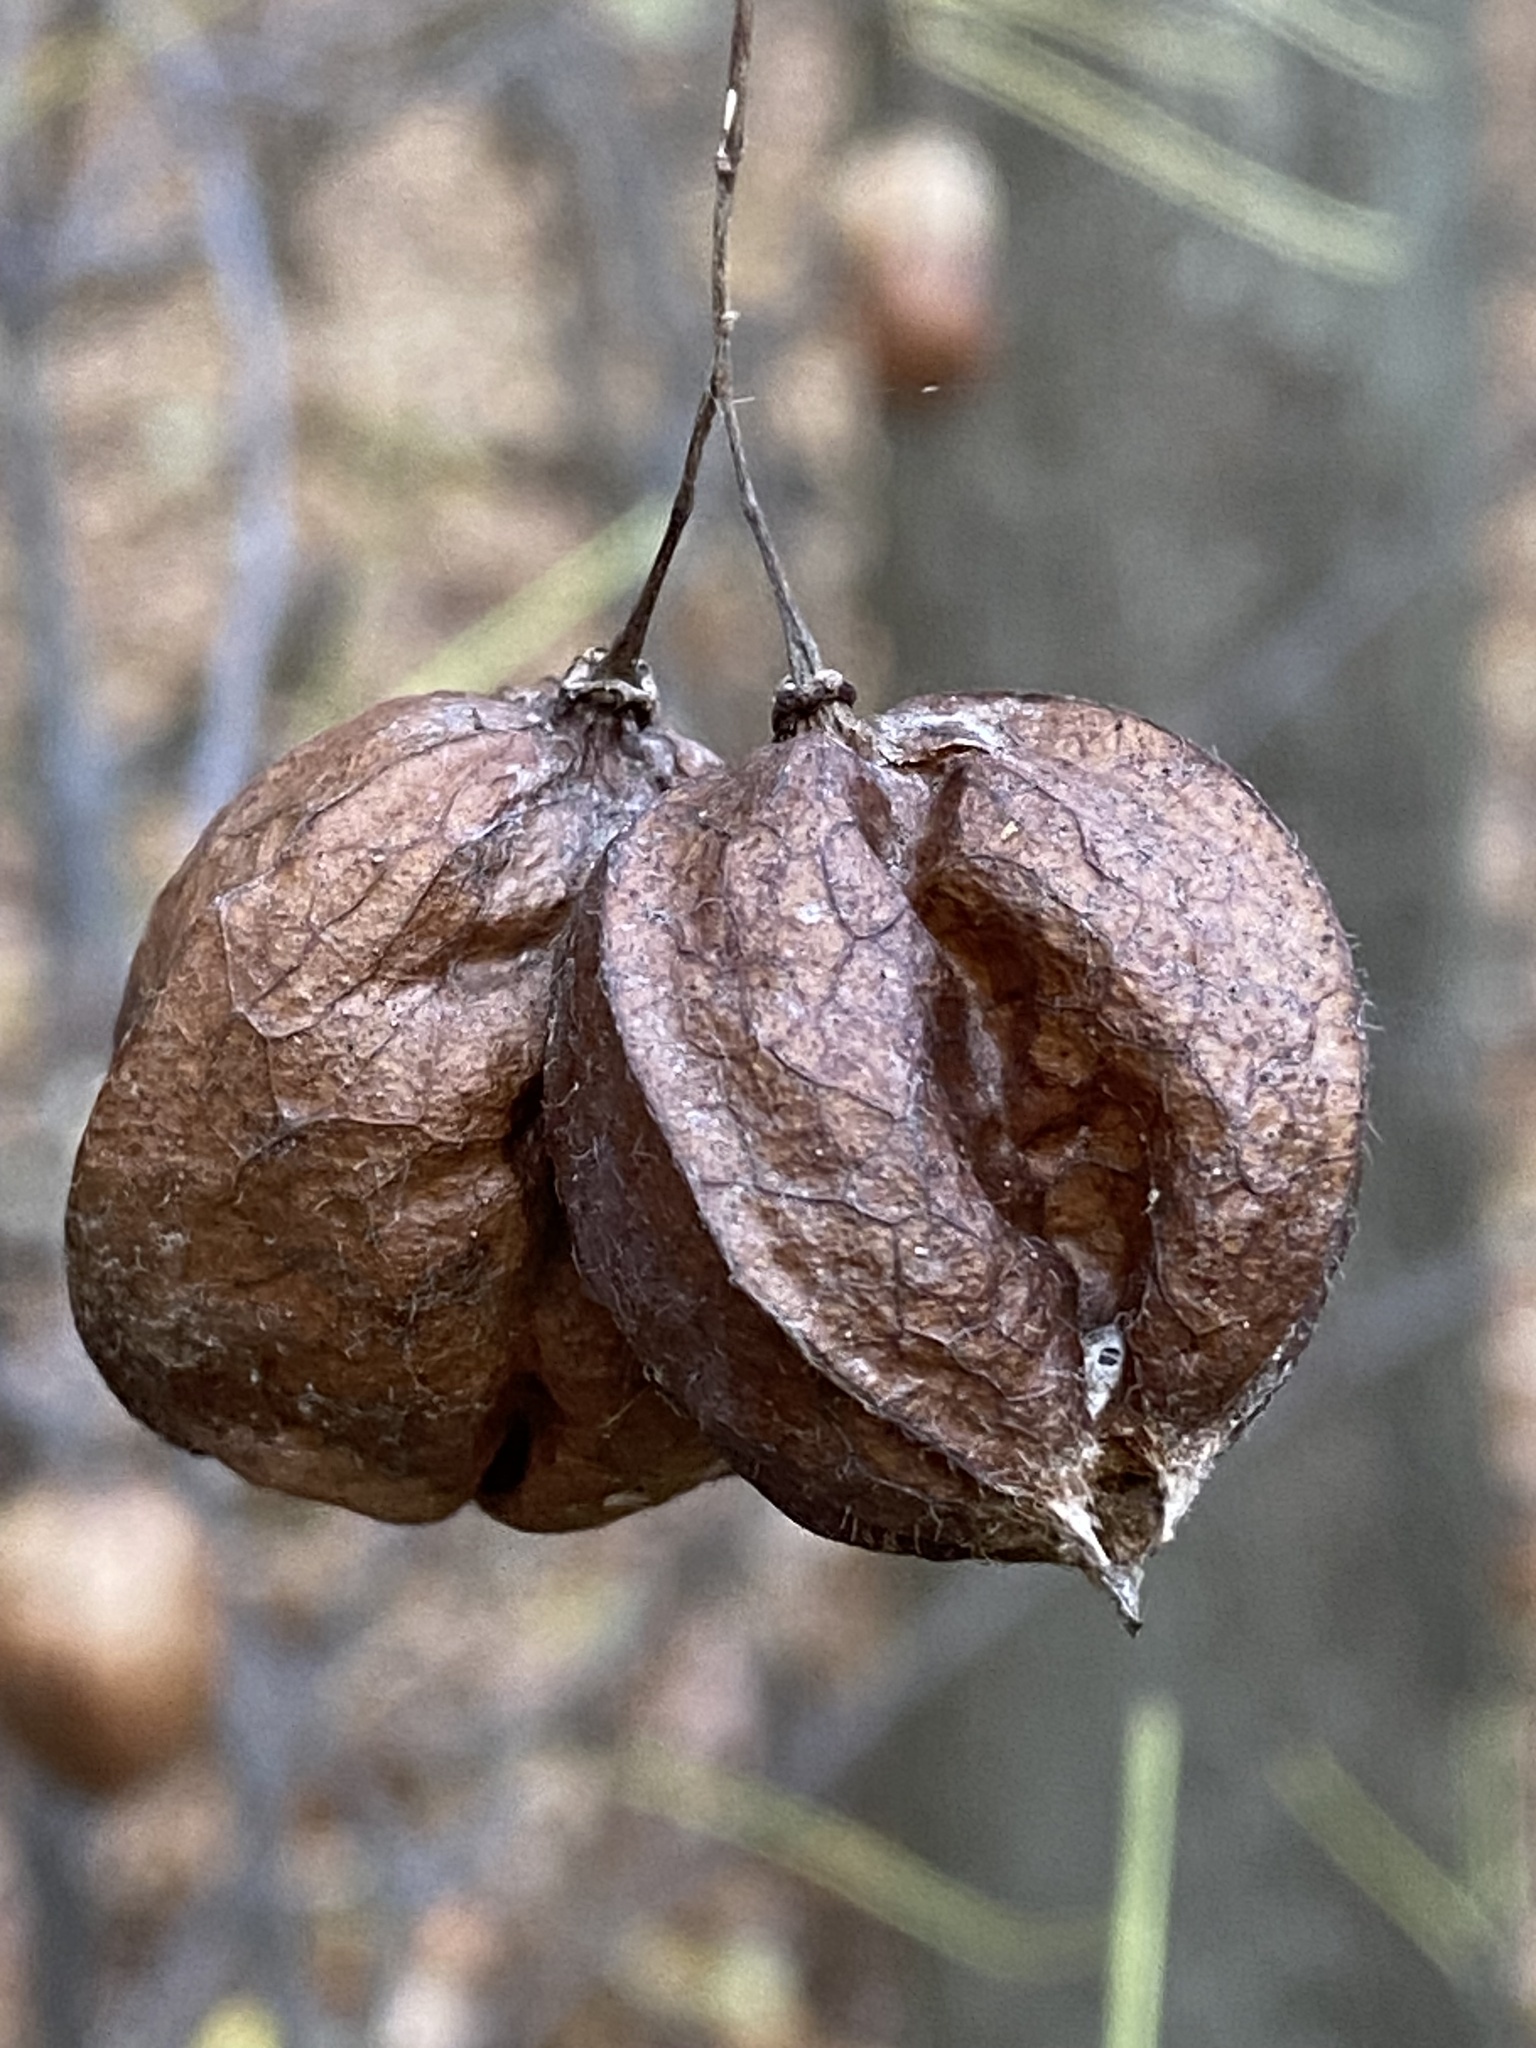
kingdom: Plantae
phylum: Tracheophyta
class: Magnoliopsida
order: Crossosomatales
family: Staphyleaceae
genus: Staphylea
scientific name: Staphylea trifolia
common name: American bladdernut
